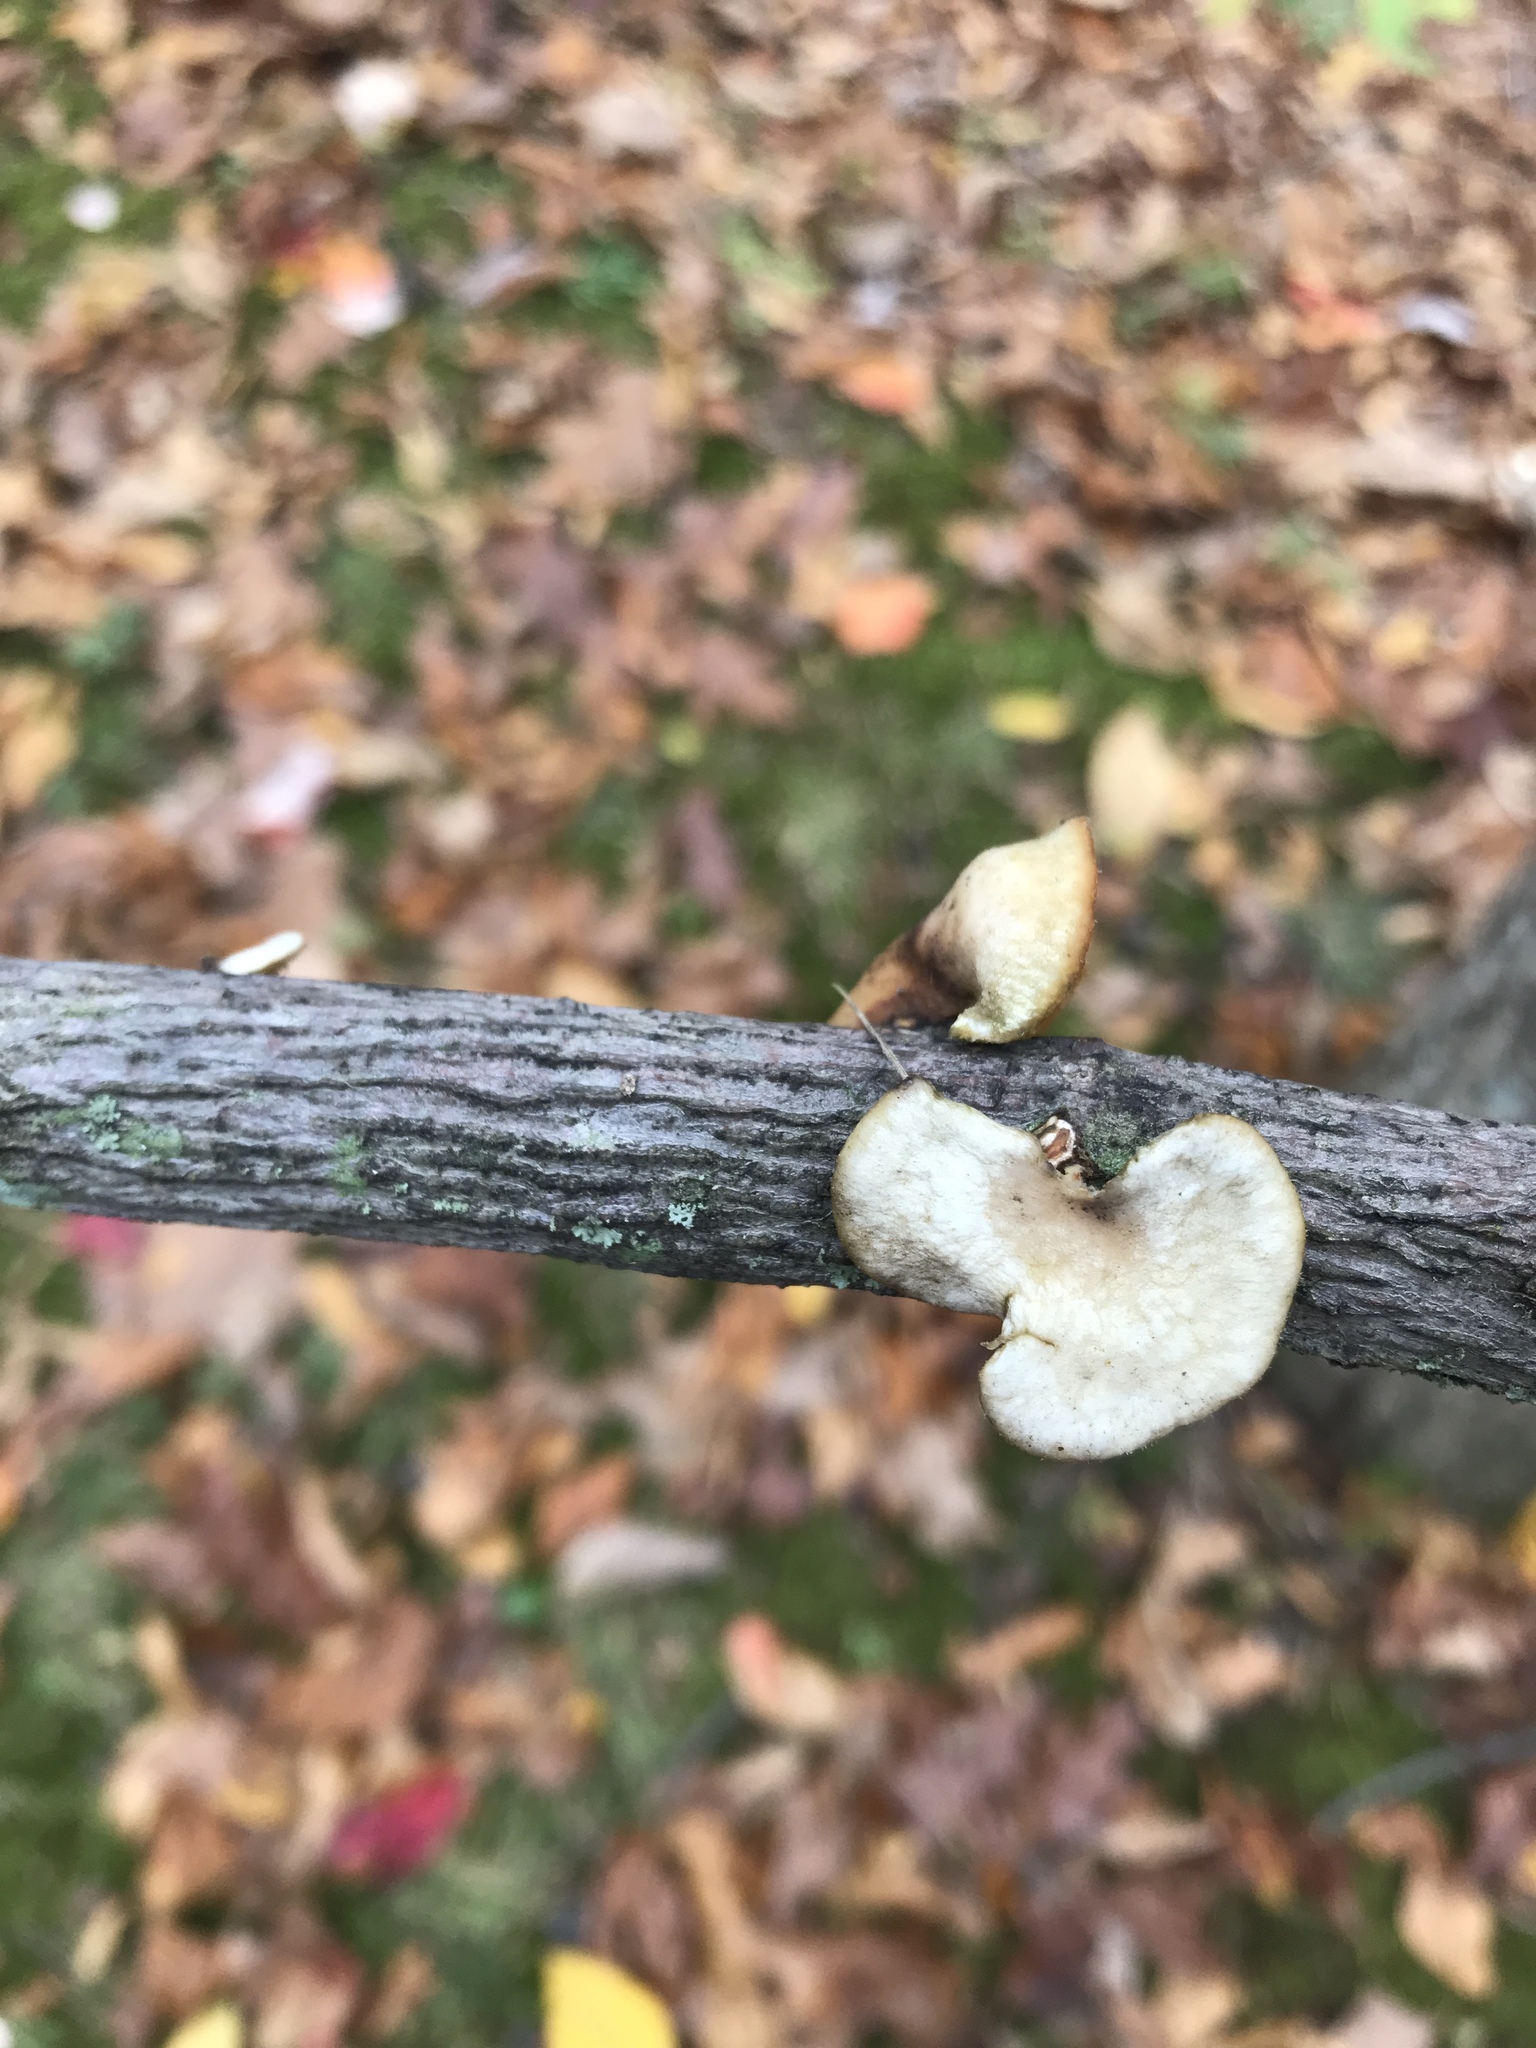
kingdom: Fungi
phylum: Basidiomycota
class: Agaricomycetes
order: Polyporales
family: Polyporaceae
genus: Neofavolus
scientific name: Neofavolus americanus
